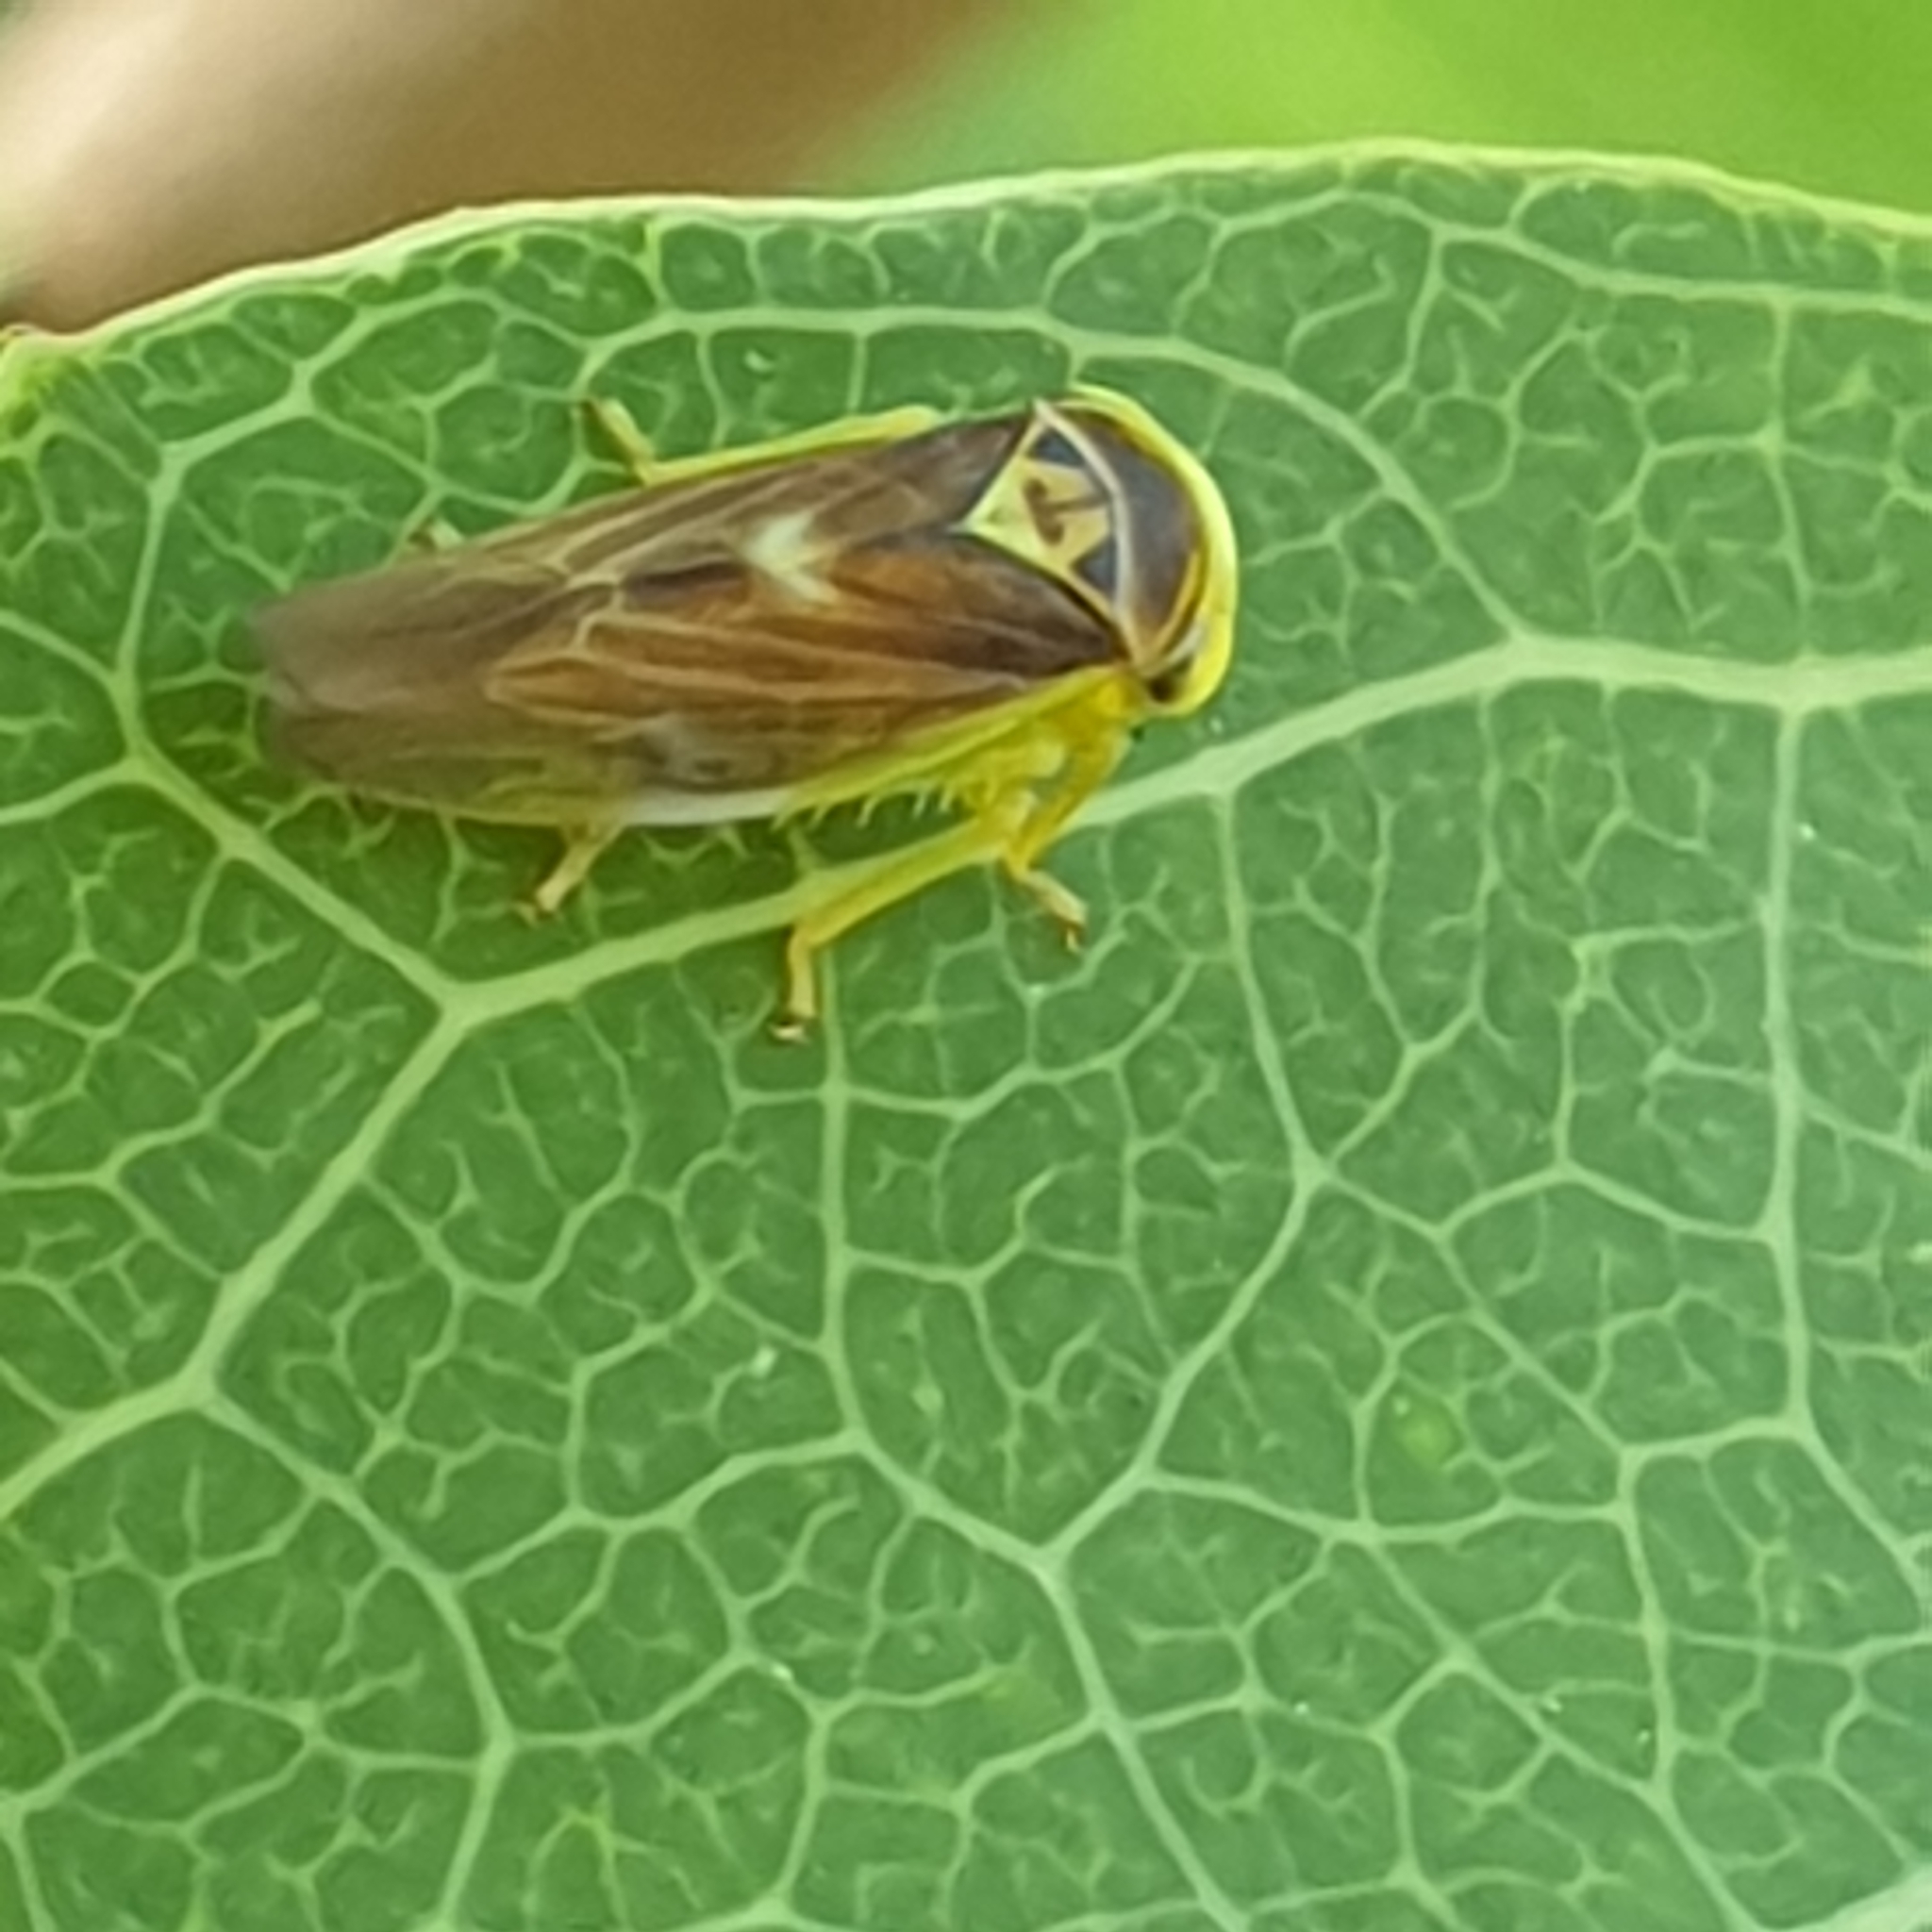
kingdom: Animalia
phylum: Arthropoda
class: Insecta
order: Hemiptera
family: Cicadellidae
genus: Populicerus
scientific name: Populicerus populi
